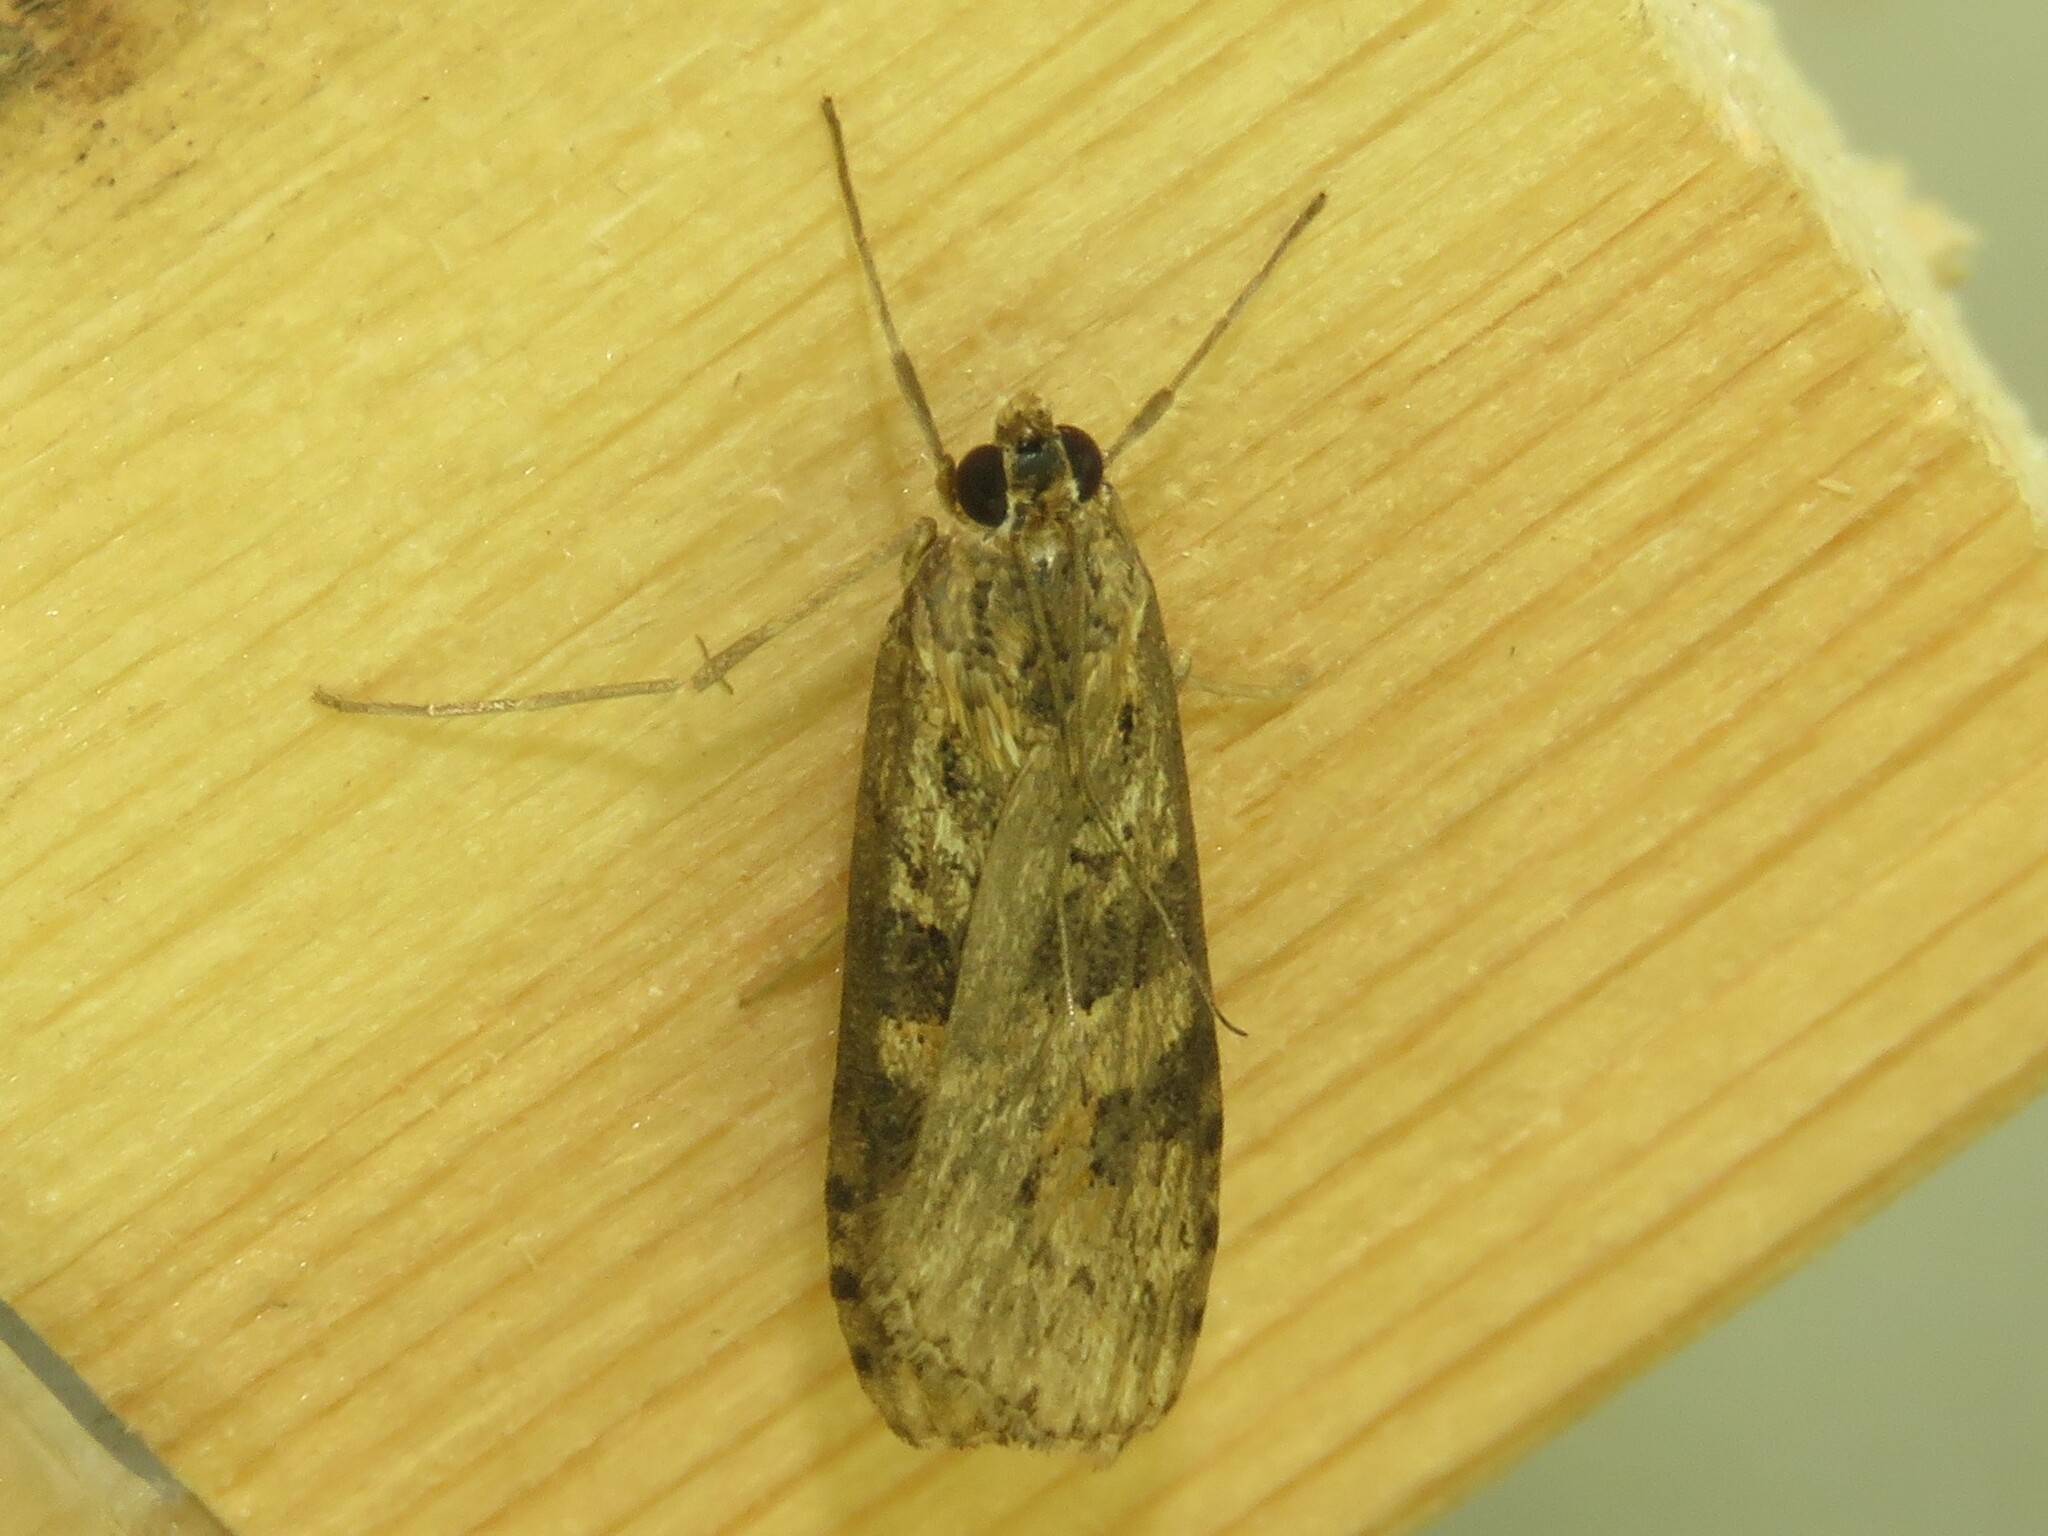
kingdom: Animalia
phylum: Arthropoda
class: Insecta
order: Lepidoptera
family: Crambidae
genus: Nomophila
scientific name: Nomophila nearctica
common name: American rush veneer
